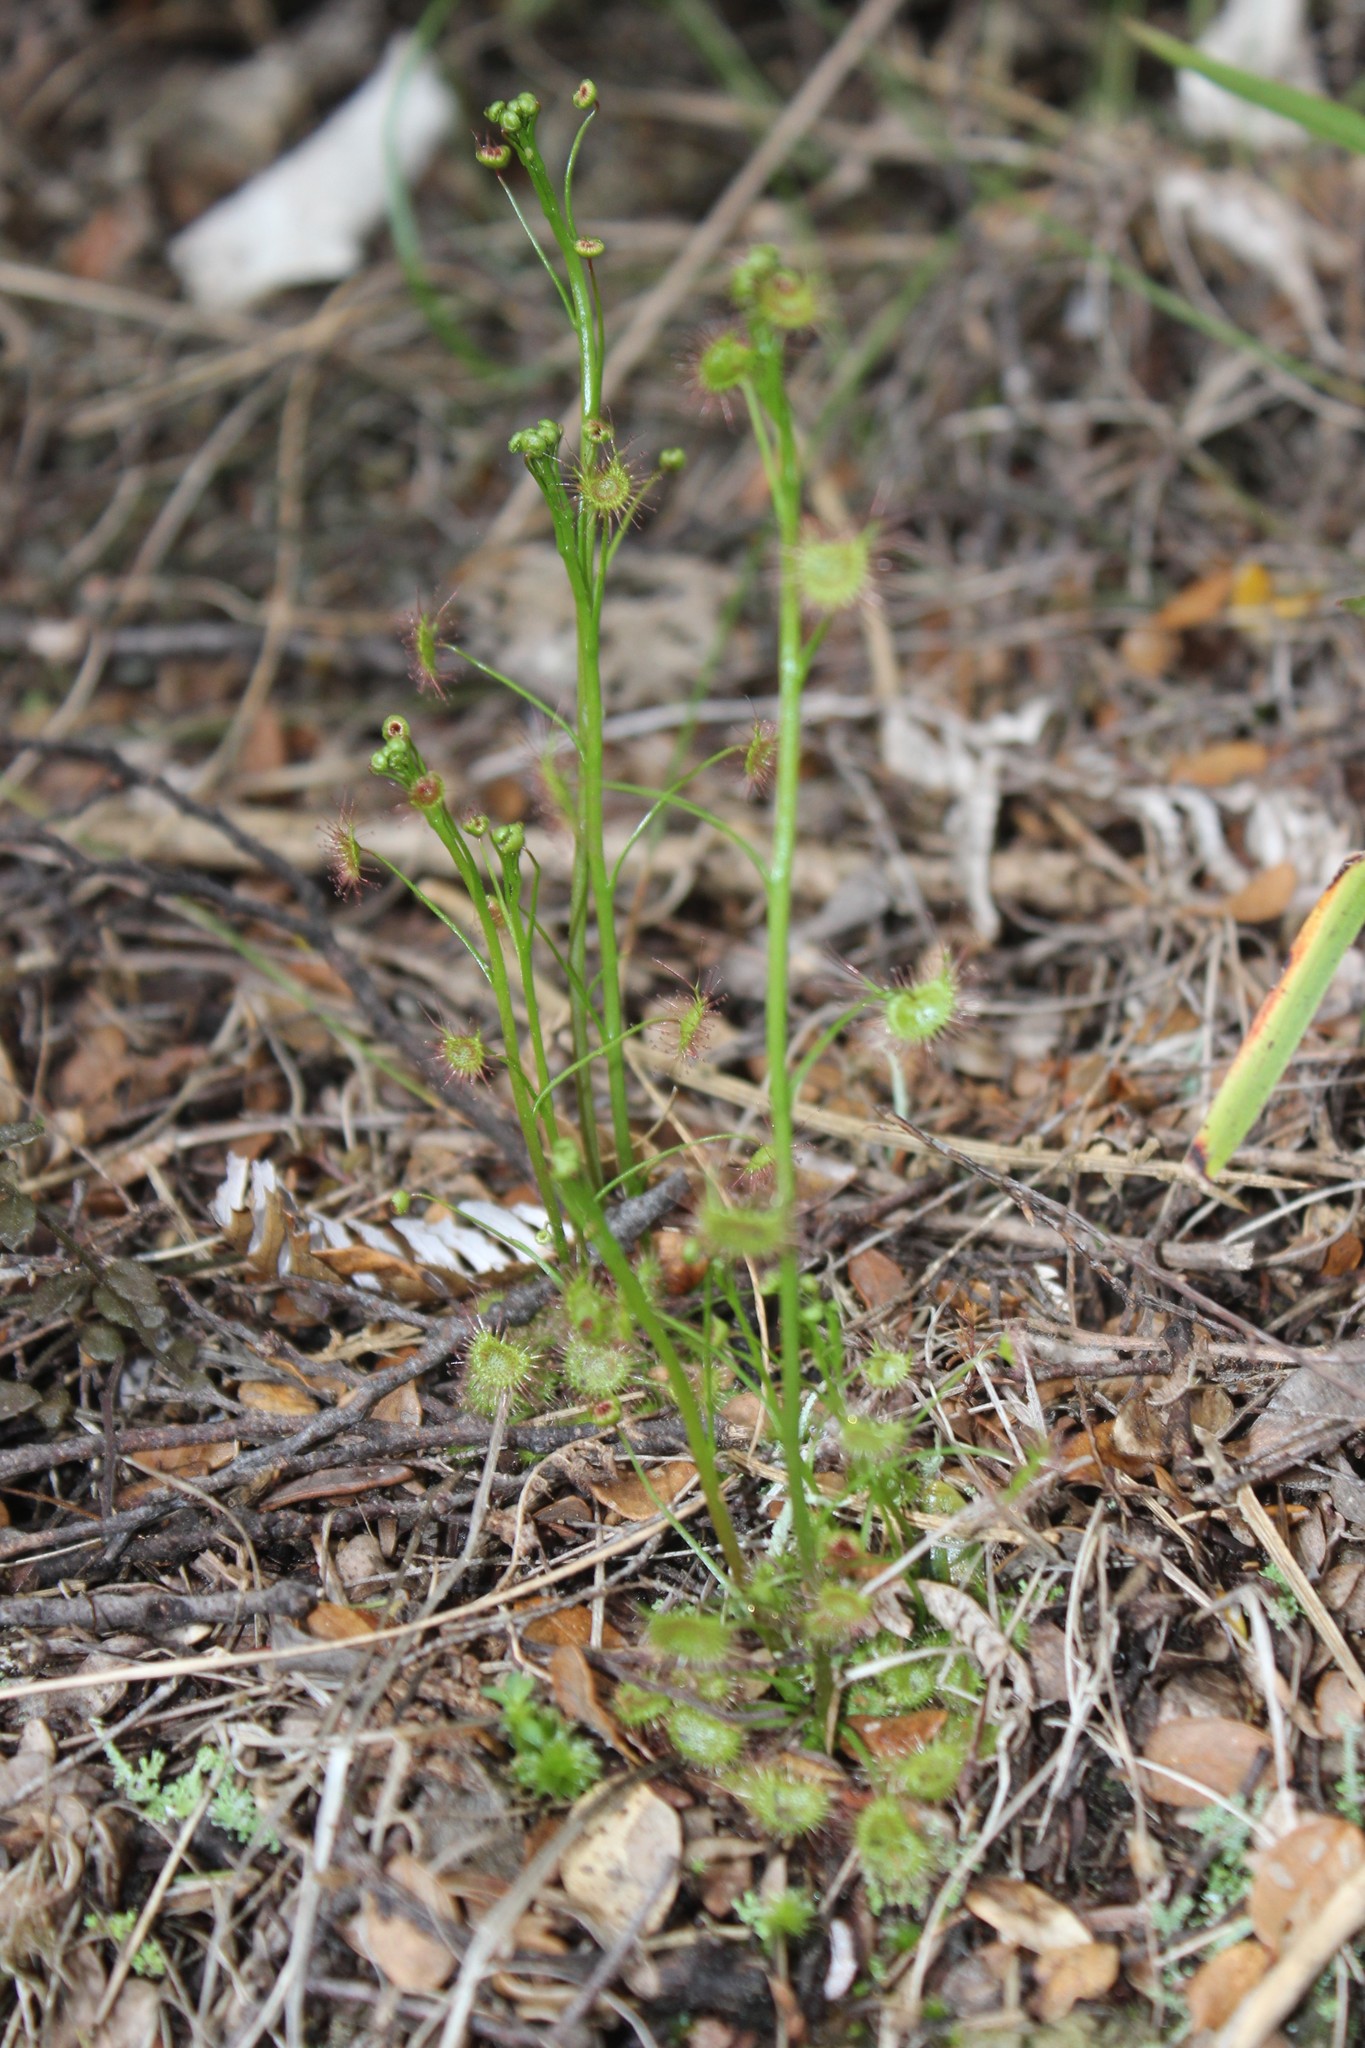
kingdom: Plantae
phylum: Tracheophyta
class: Magnoliopsida
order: Caryophyllales
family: Droseraceae
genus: Drosera
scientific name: Drosera peltata
